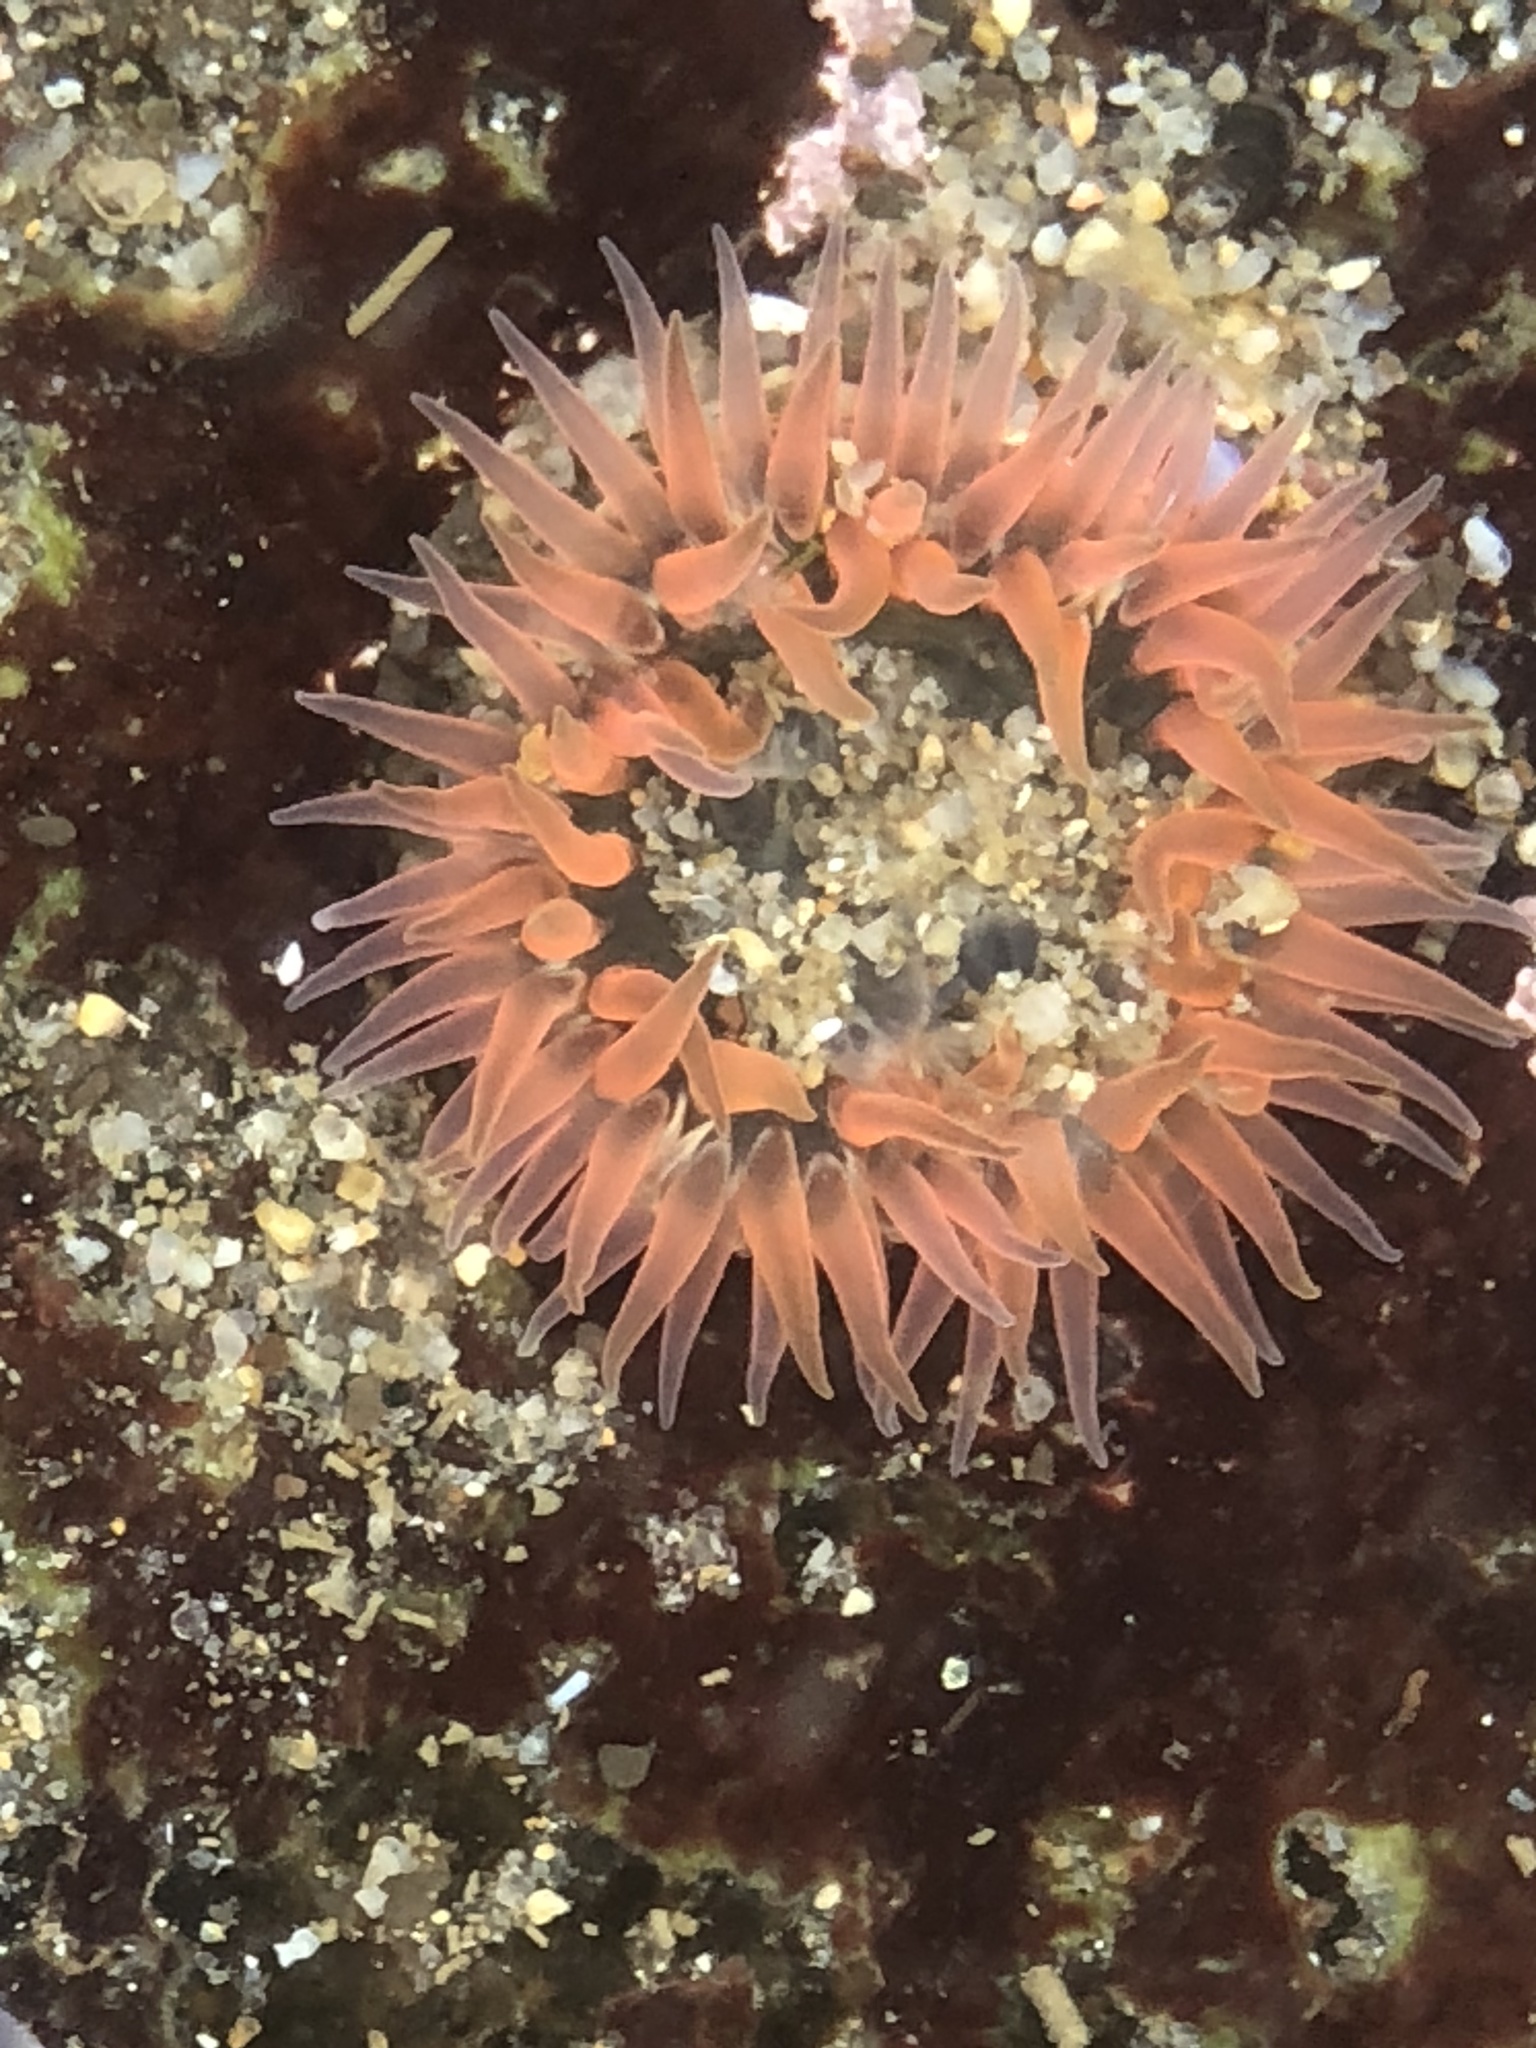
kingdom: Animalia
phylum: Cnidaria
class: Anthozoa
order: Actiniaria
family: Actiniidae
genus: Anthopleura
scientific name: Anthopleura artemisia
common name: Buried sea anemone
